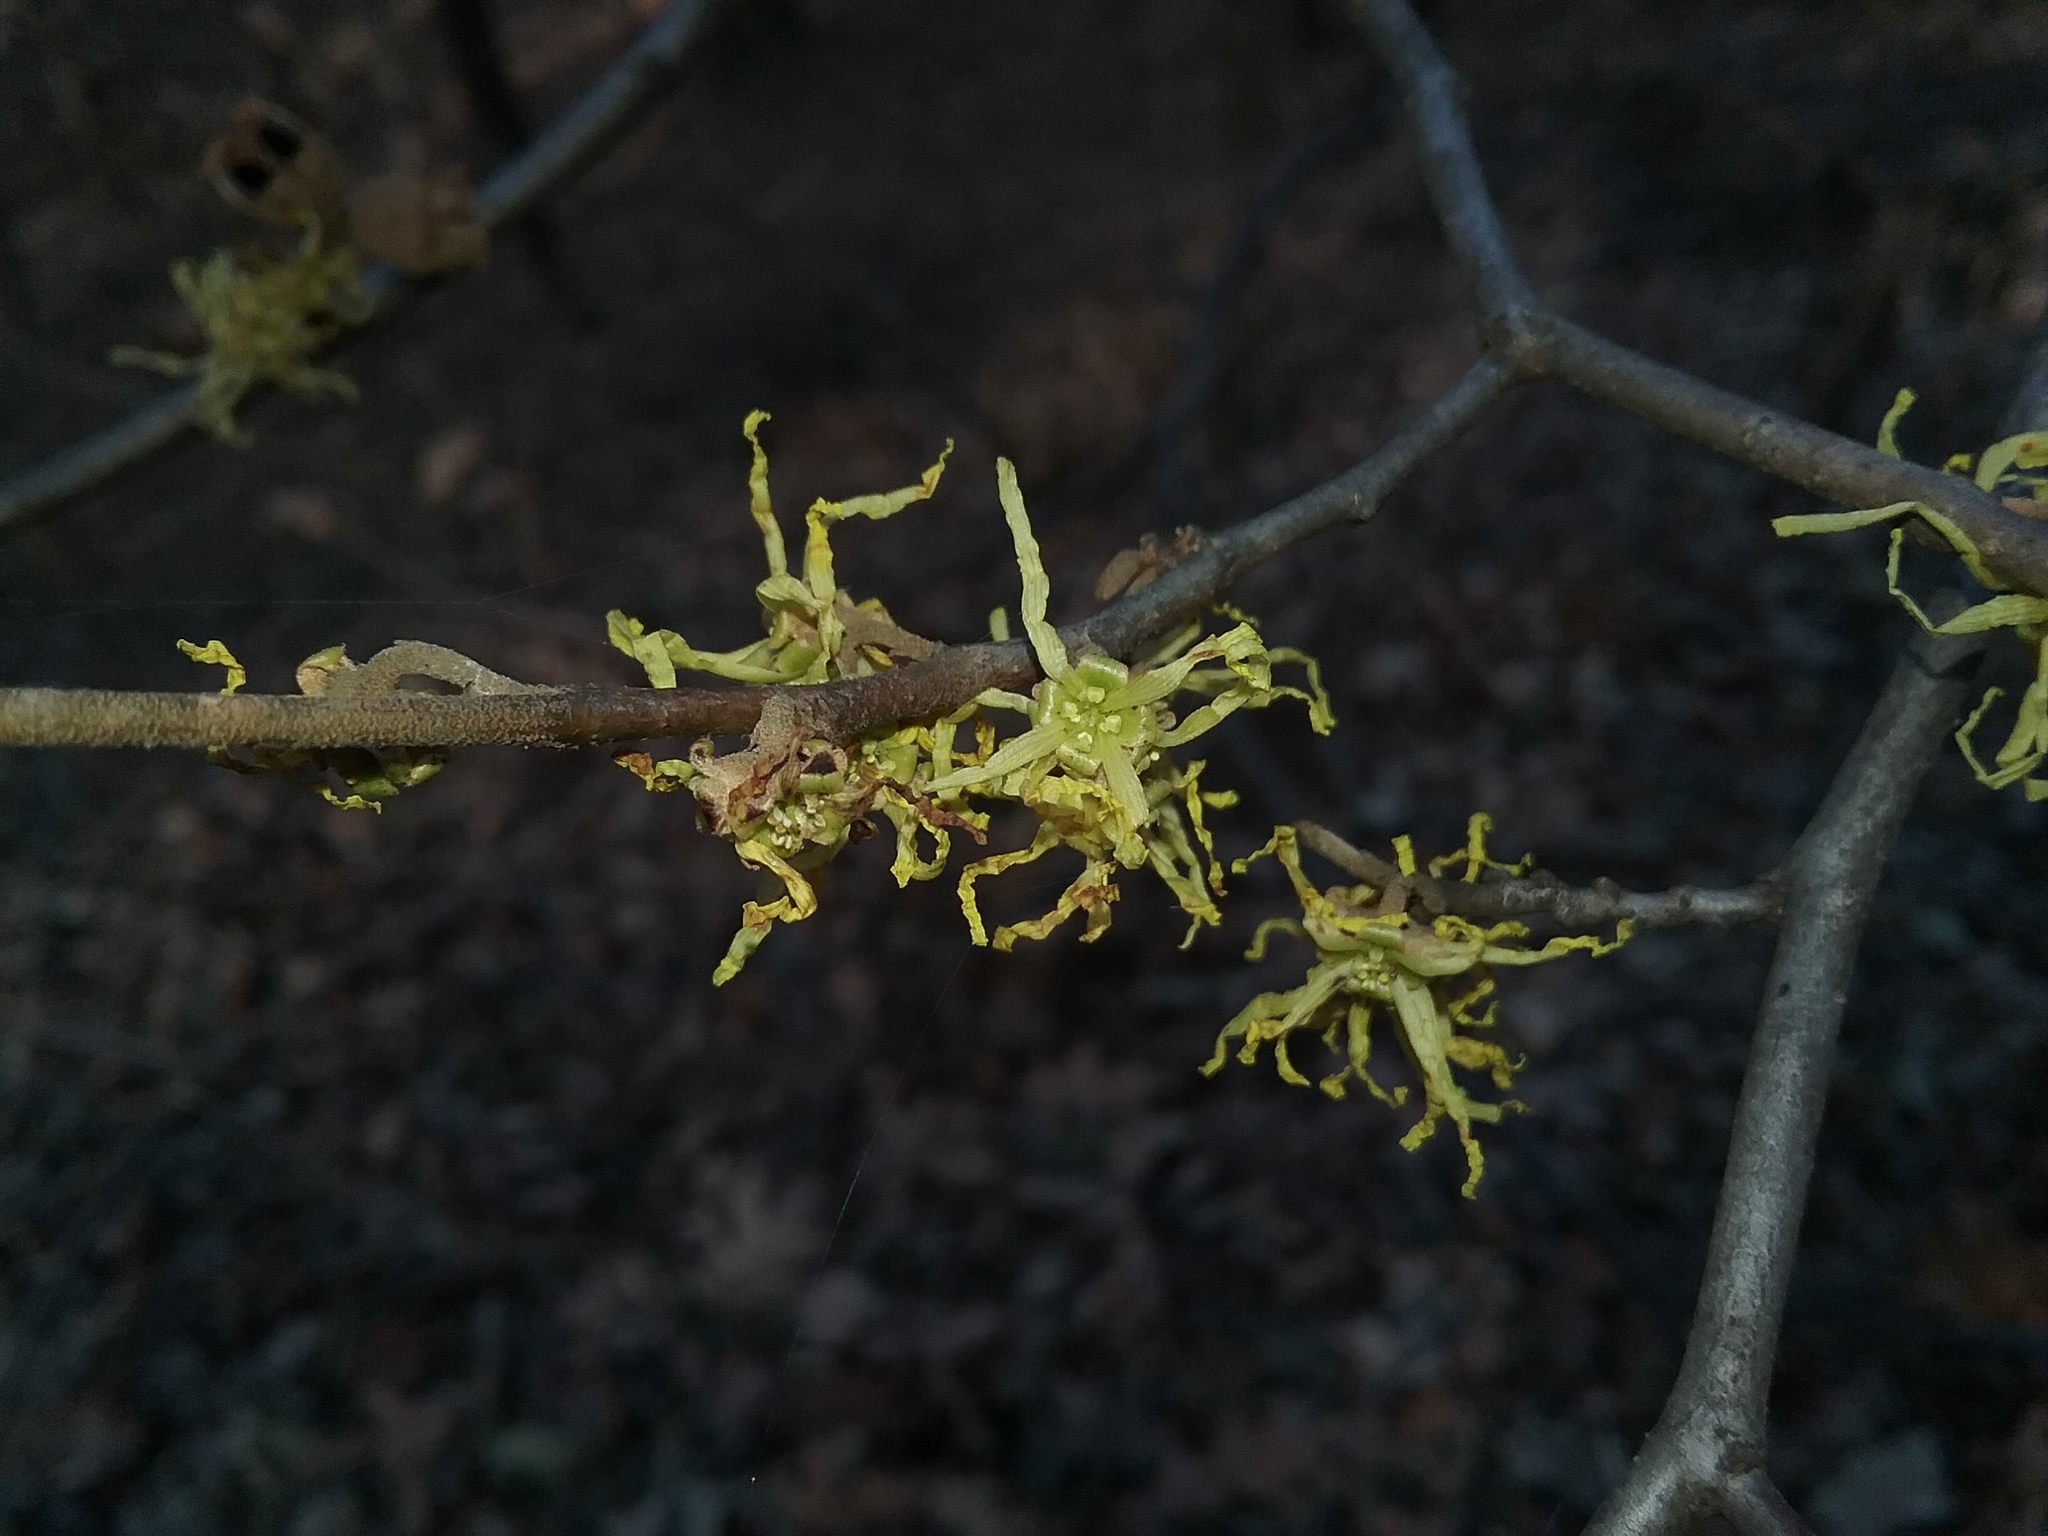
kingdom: Plantae
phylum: Tracheophyta
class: Magnoliopsida
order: Saxifragales
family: Hamamelidaceae
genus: Hamamelis
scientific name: Hamamelis virginiana
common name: Witch-hazel
